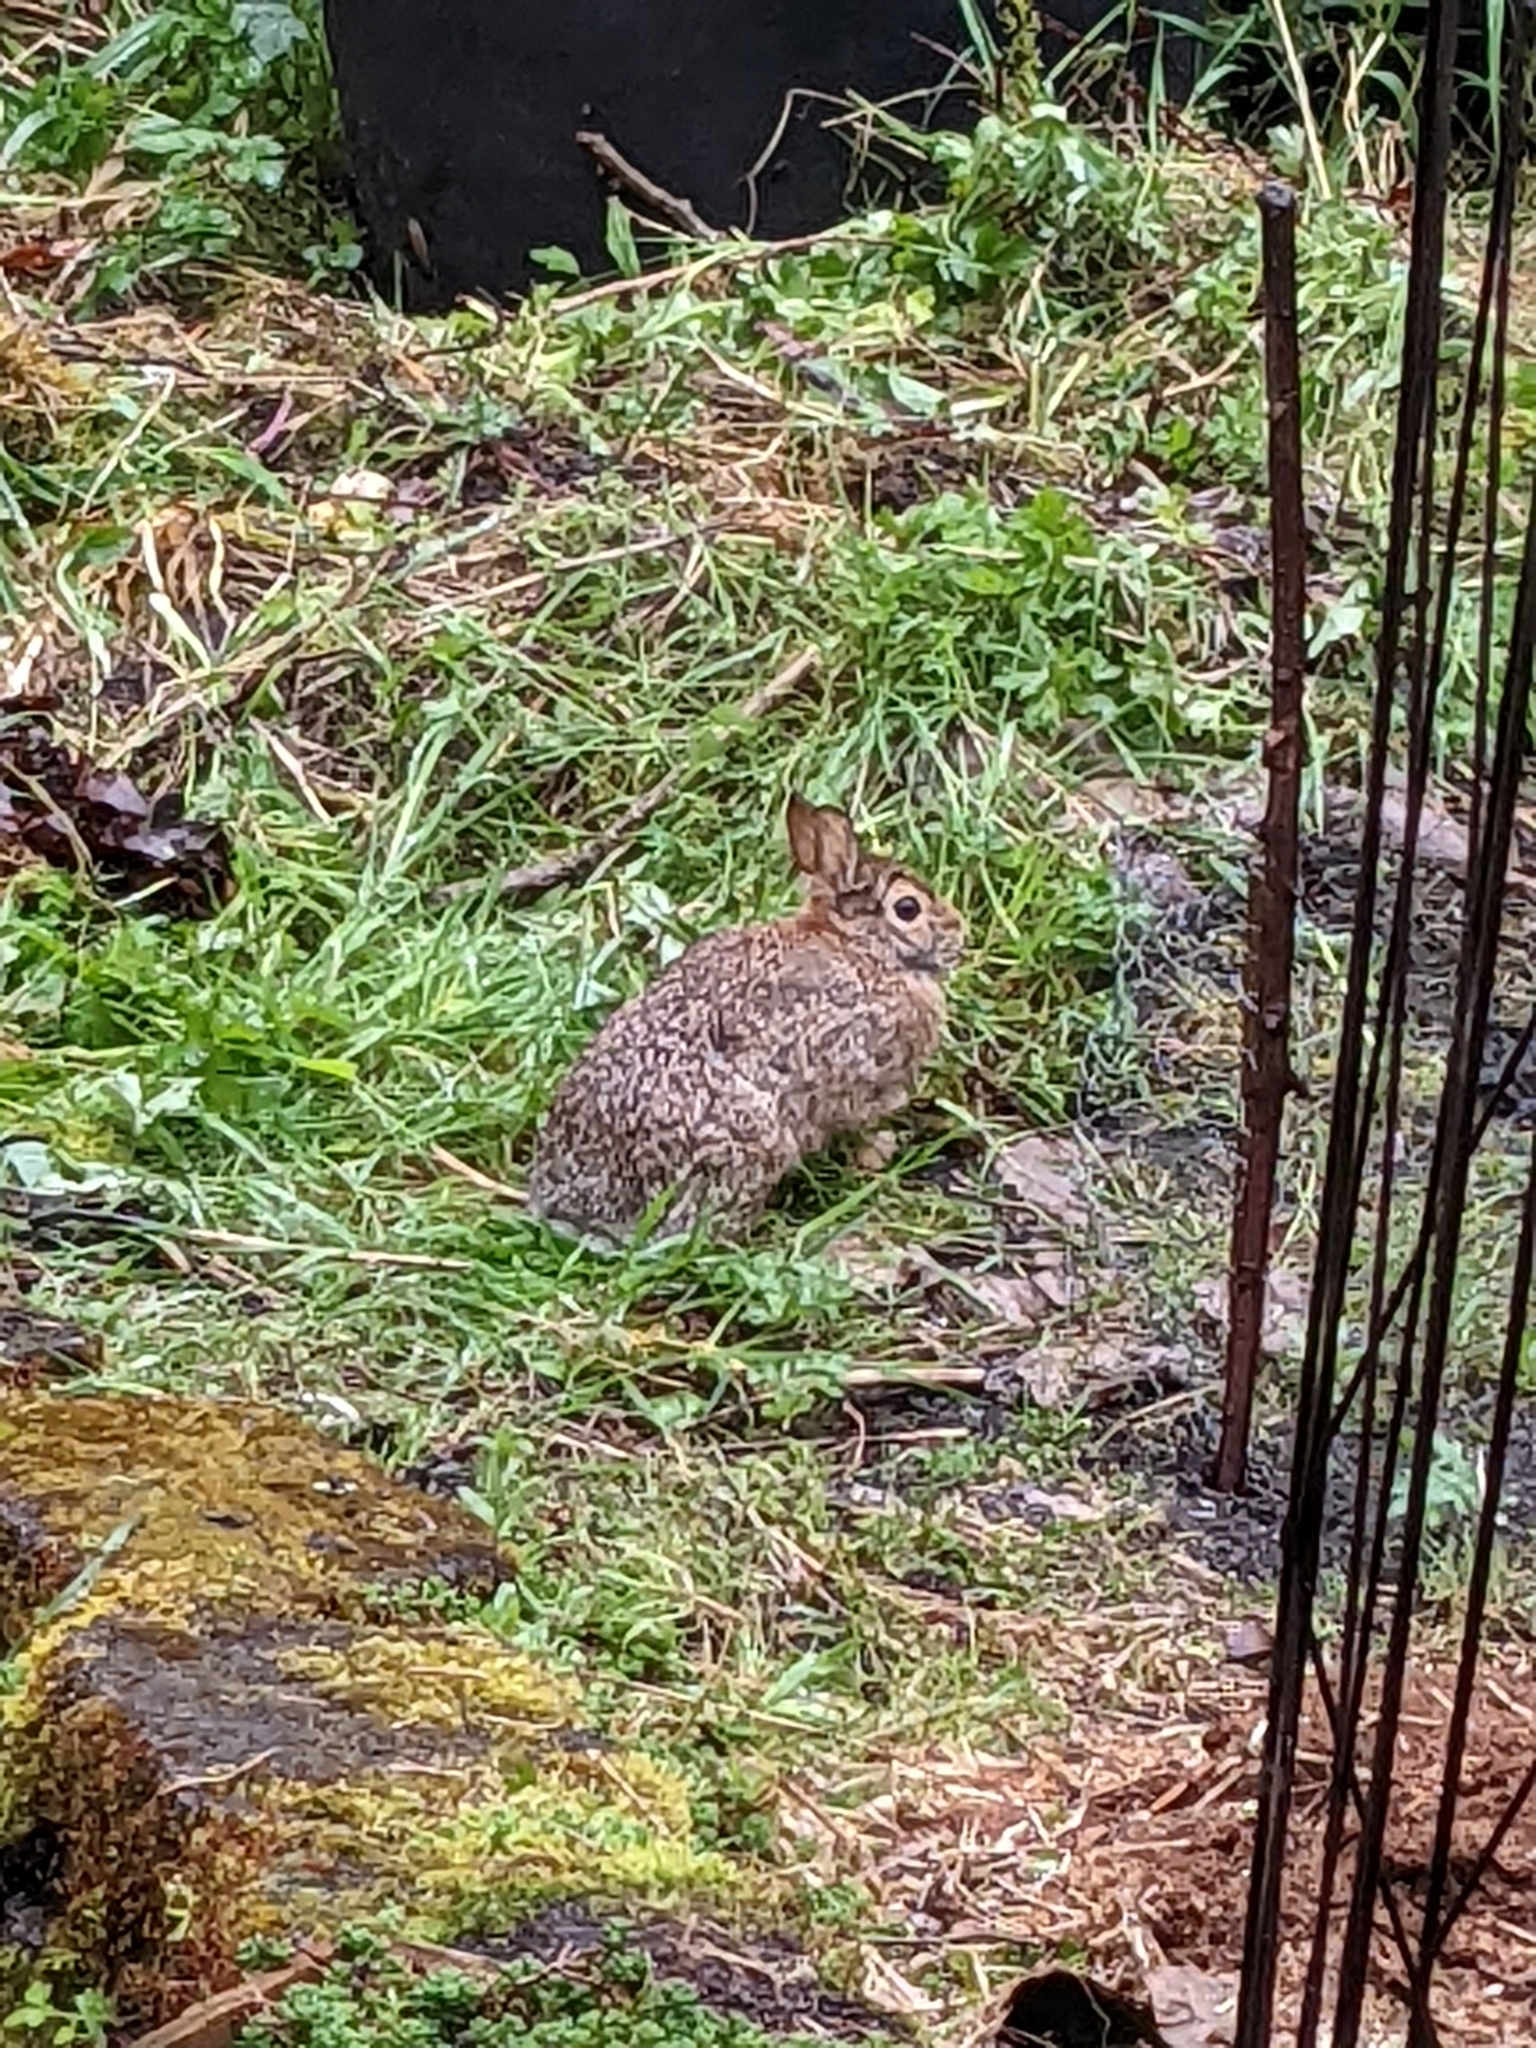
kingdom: Animalia
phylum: Chordata
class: Mammalia
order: Lagomorpha
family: Leporidae
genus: Sylvilagus
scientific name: Sylvilagus floridanus
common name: Eastern cottontail
